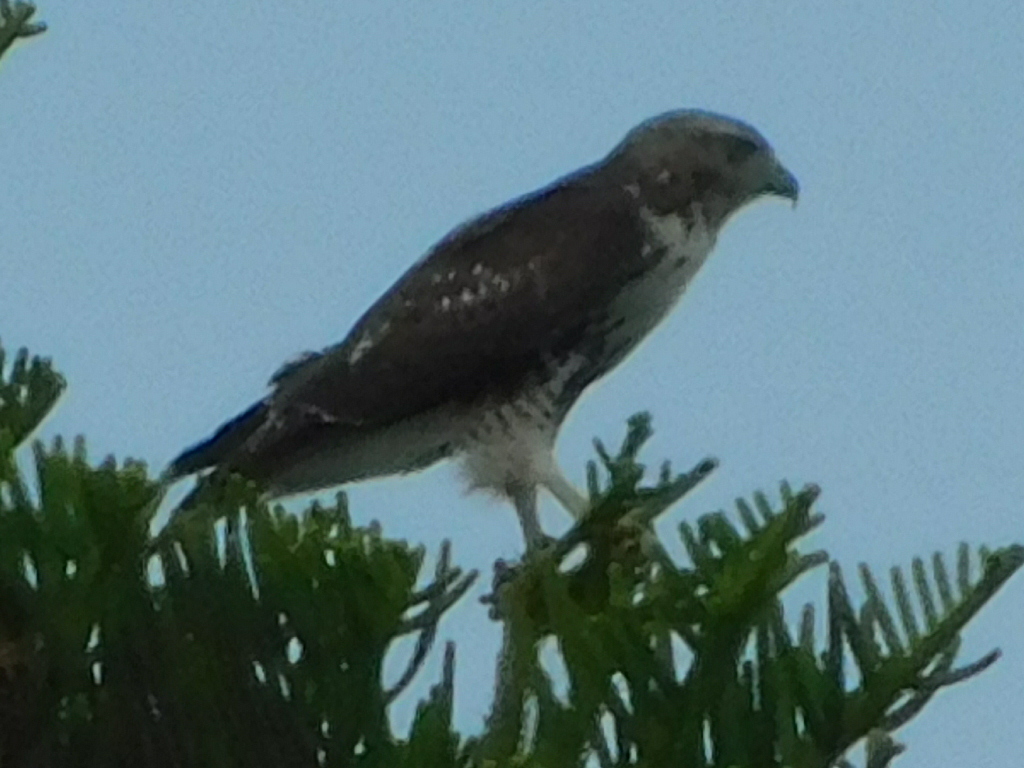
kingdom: Animalia
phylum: Chordata
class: Aves
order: Accipitriformes
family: Accipitridae
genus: Buteo
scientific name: Buteo jamaicensis
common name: Red-tailed hawk
